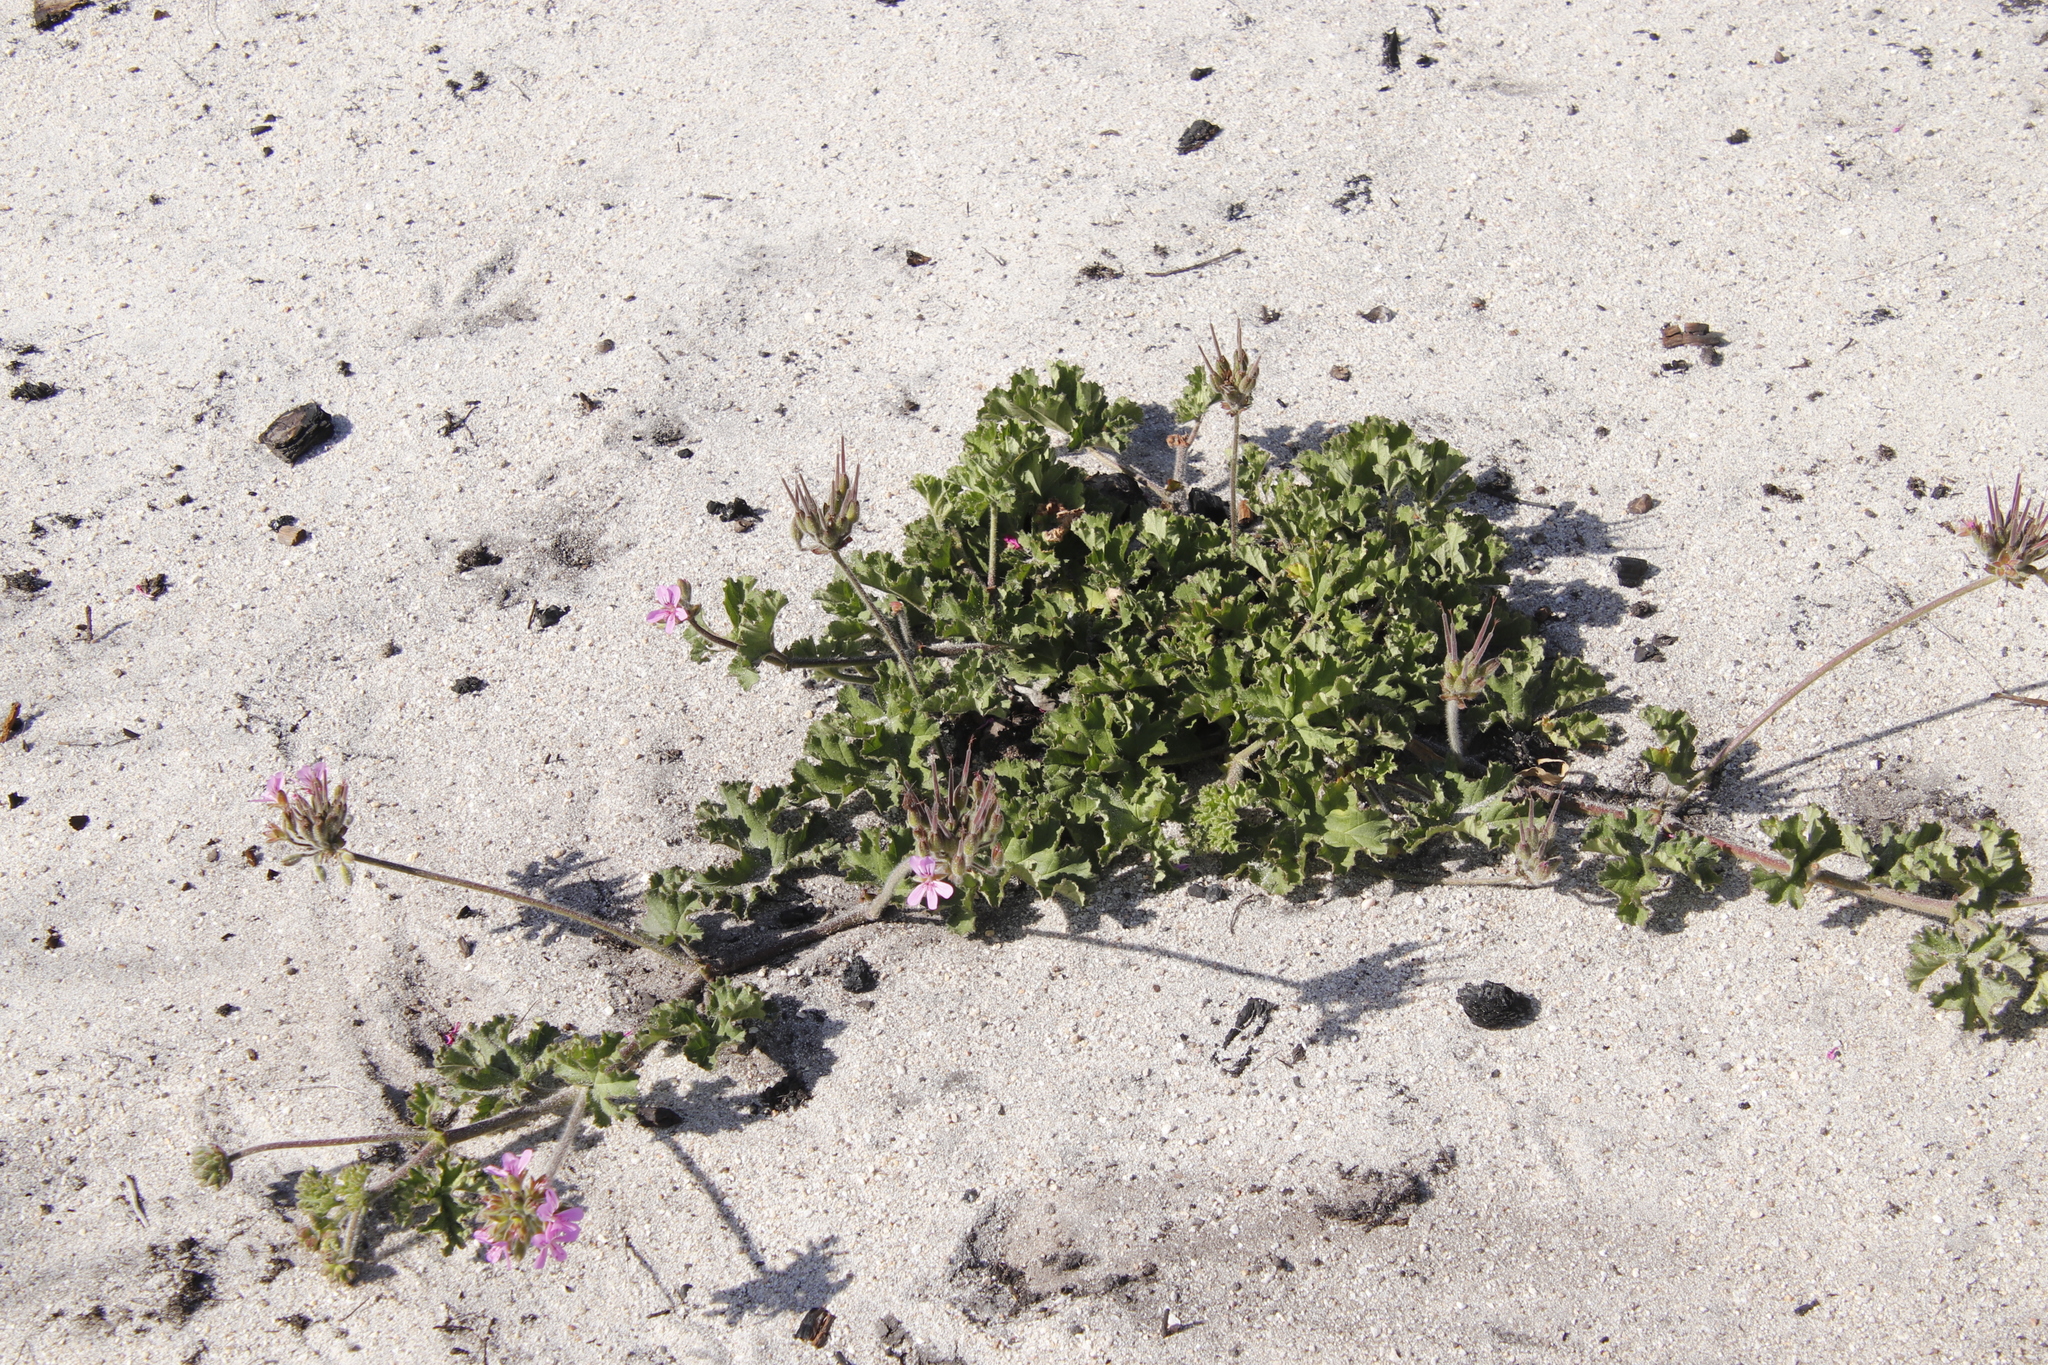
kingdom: Plantae
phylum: Tracheophyta
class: Magnoliopsida
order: Geraniales
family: Geraniaceae
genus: Pelargonium
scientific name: Pelargonium capitatum
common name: Rose scented geranium
